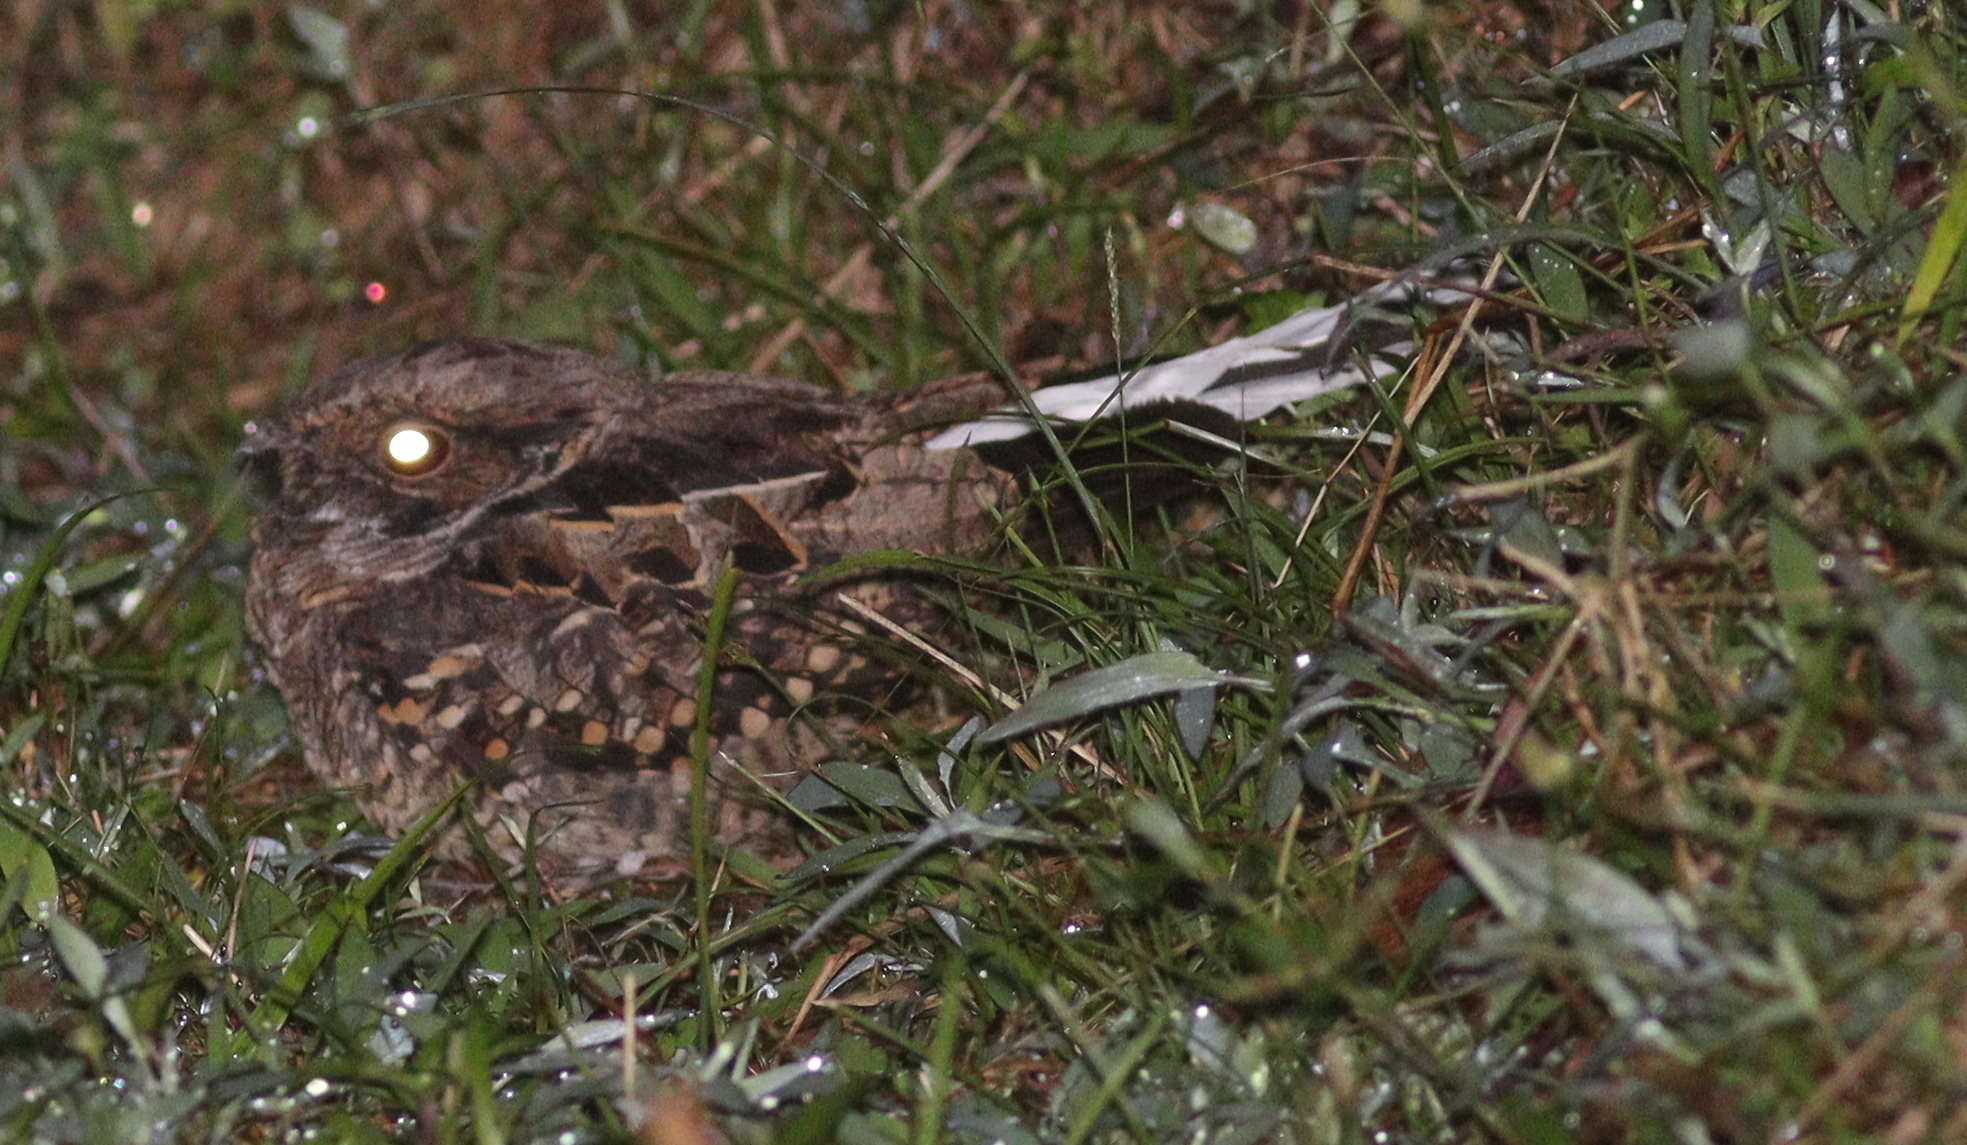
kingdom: Animalia
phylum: Chordata
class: Aves
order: Caprimulgiformes
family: Caprimulgidae
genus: Nyctidromus
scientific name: Nyctidromus albicollis
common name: Pauraque
